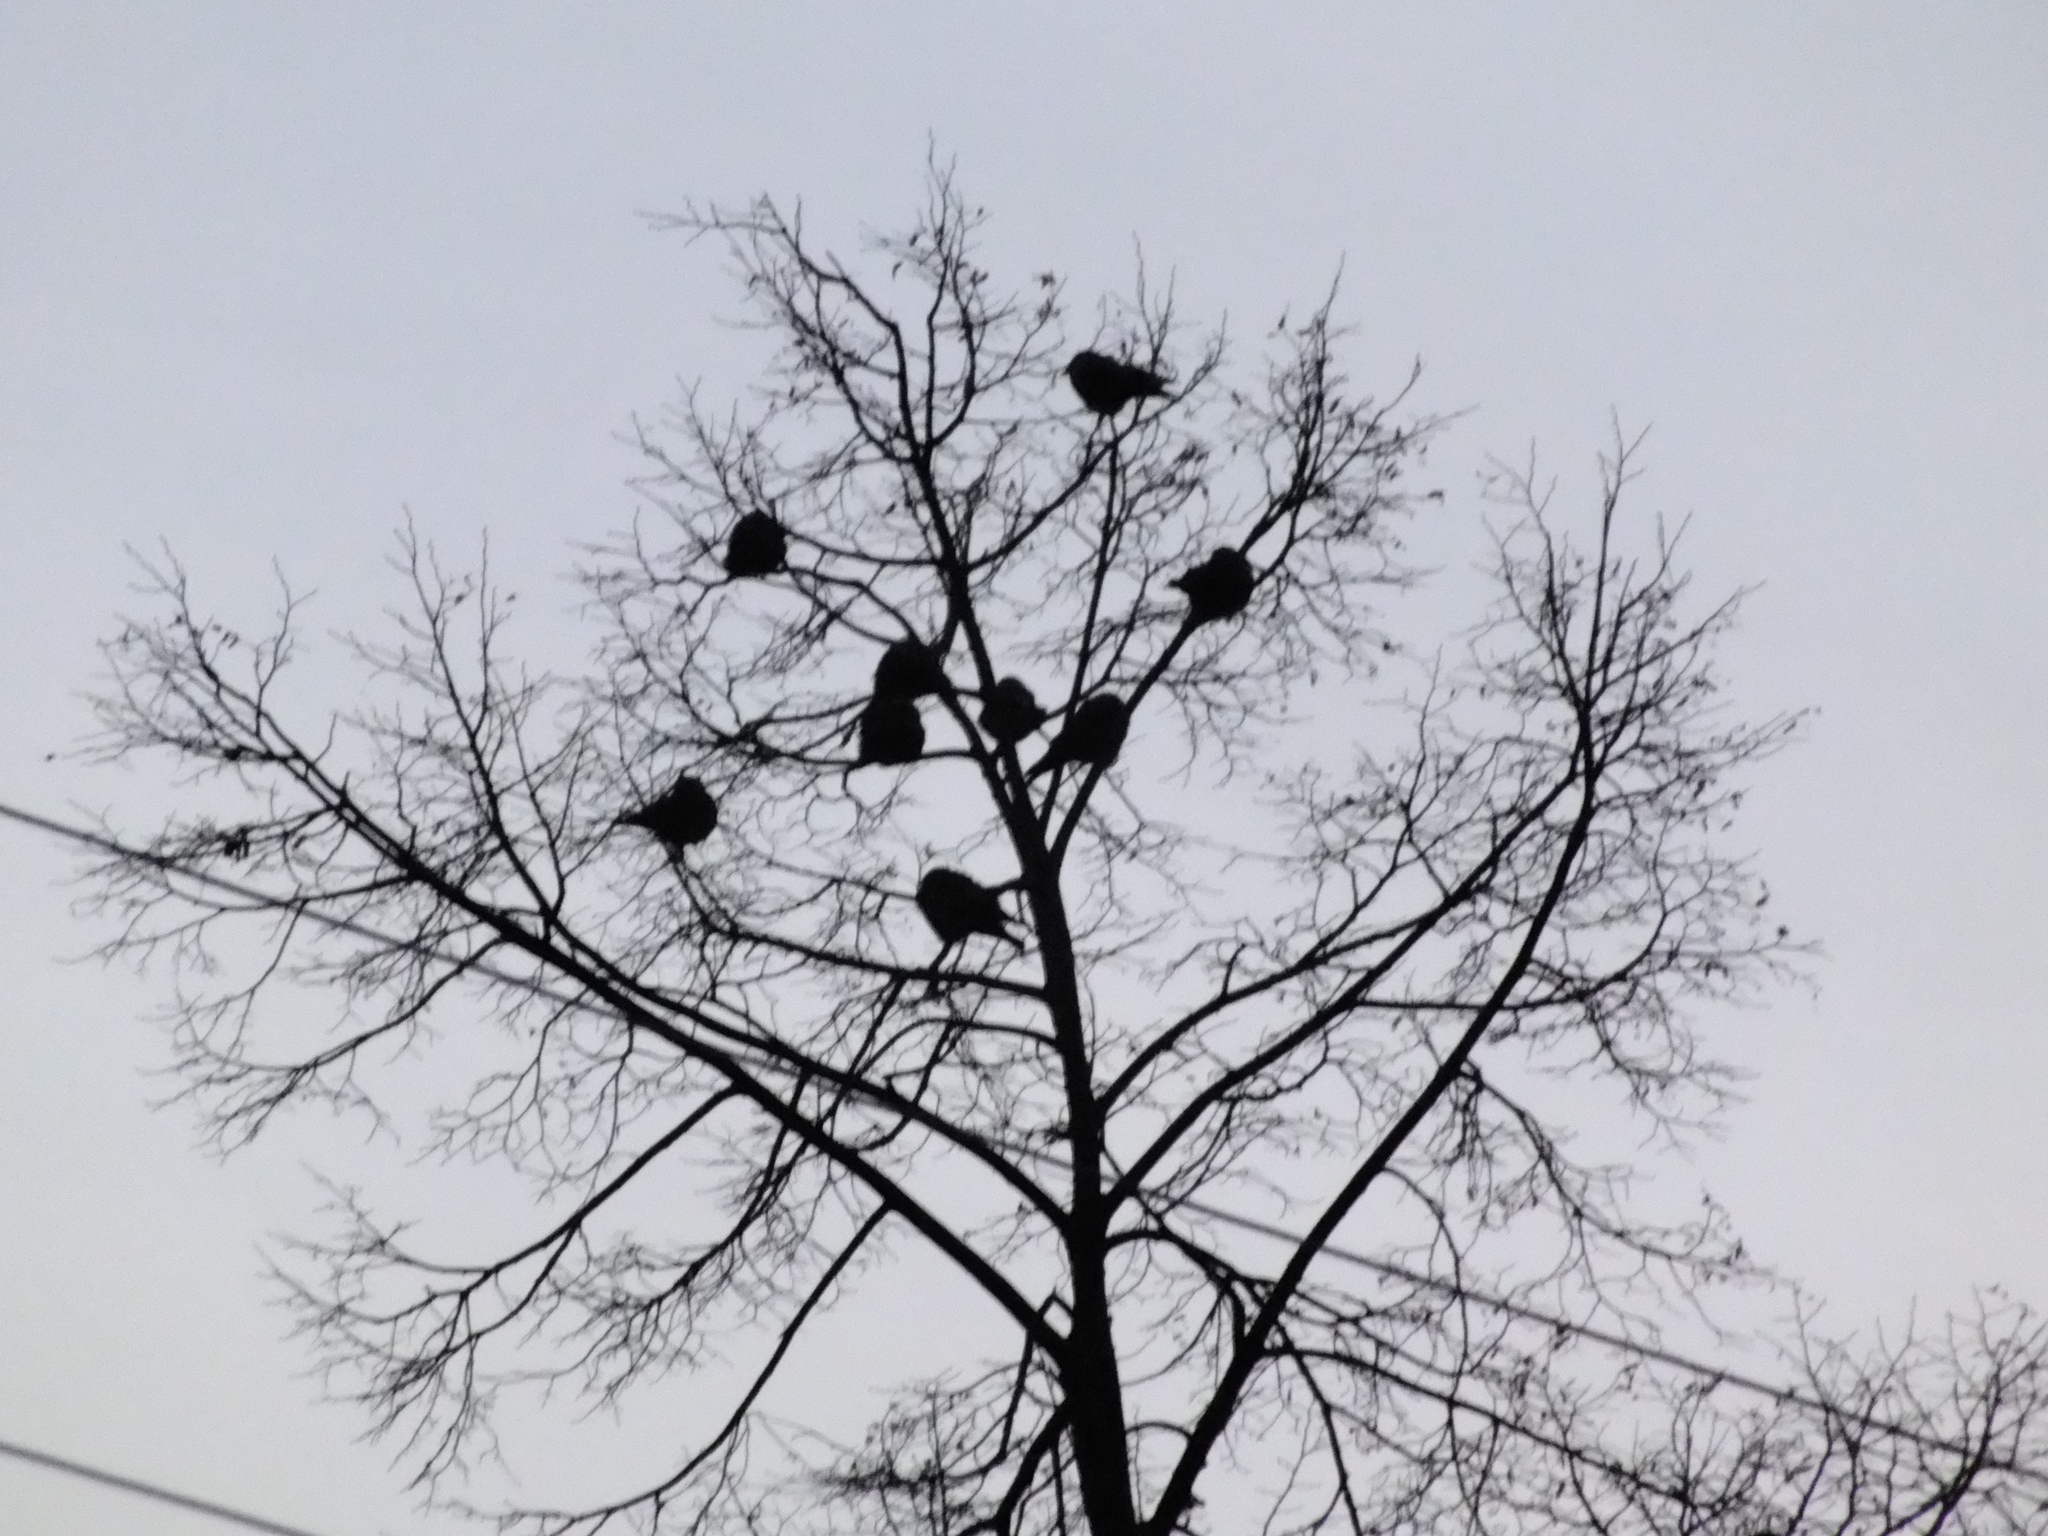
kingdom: Animalia
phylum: Chordata
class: Aves
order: Passeriformes
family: Corvidae
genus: Coloeus
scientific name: Coloeus monedula
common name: Western jackdaw
